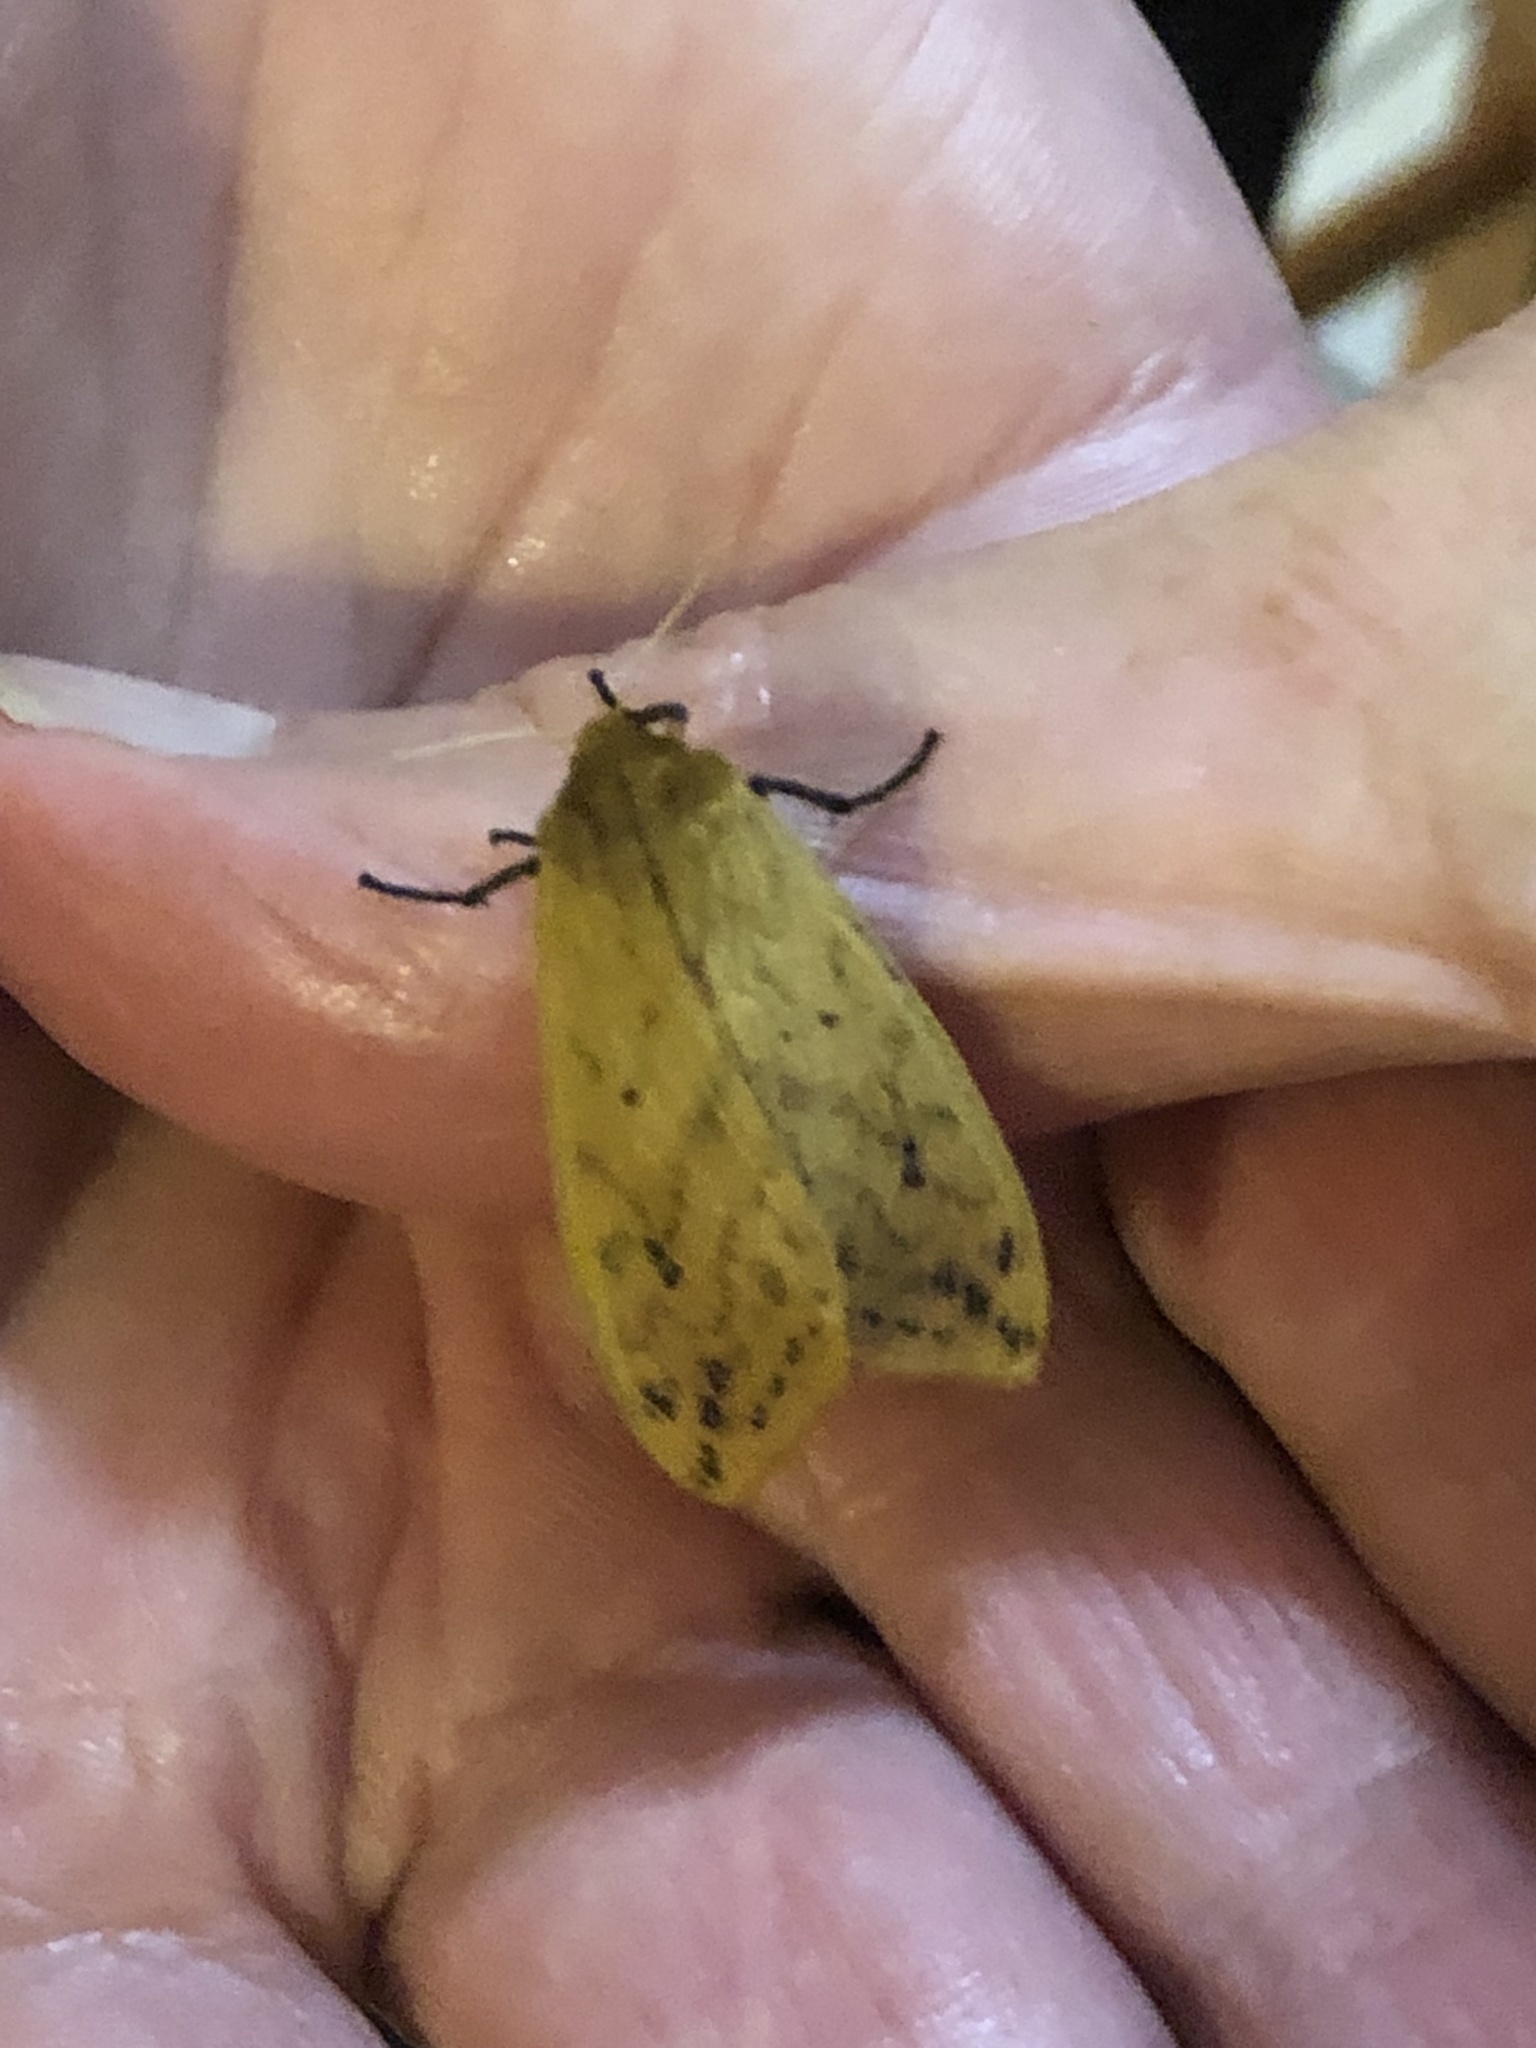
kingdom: Animalia
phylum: Arthropoda
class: Insecta
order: Lepidoptera
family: Erebidae
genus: Pyrrharctia
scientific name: Pyrrharctia isabella
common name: Isabella tiger moth
